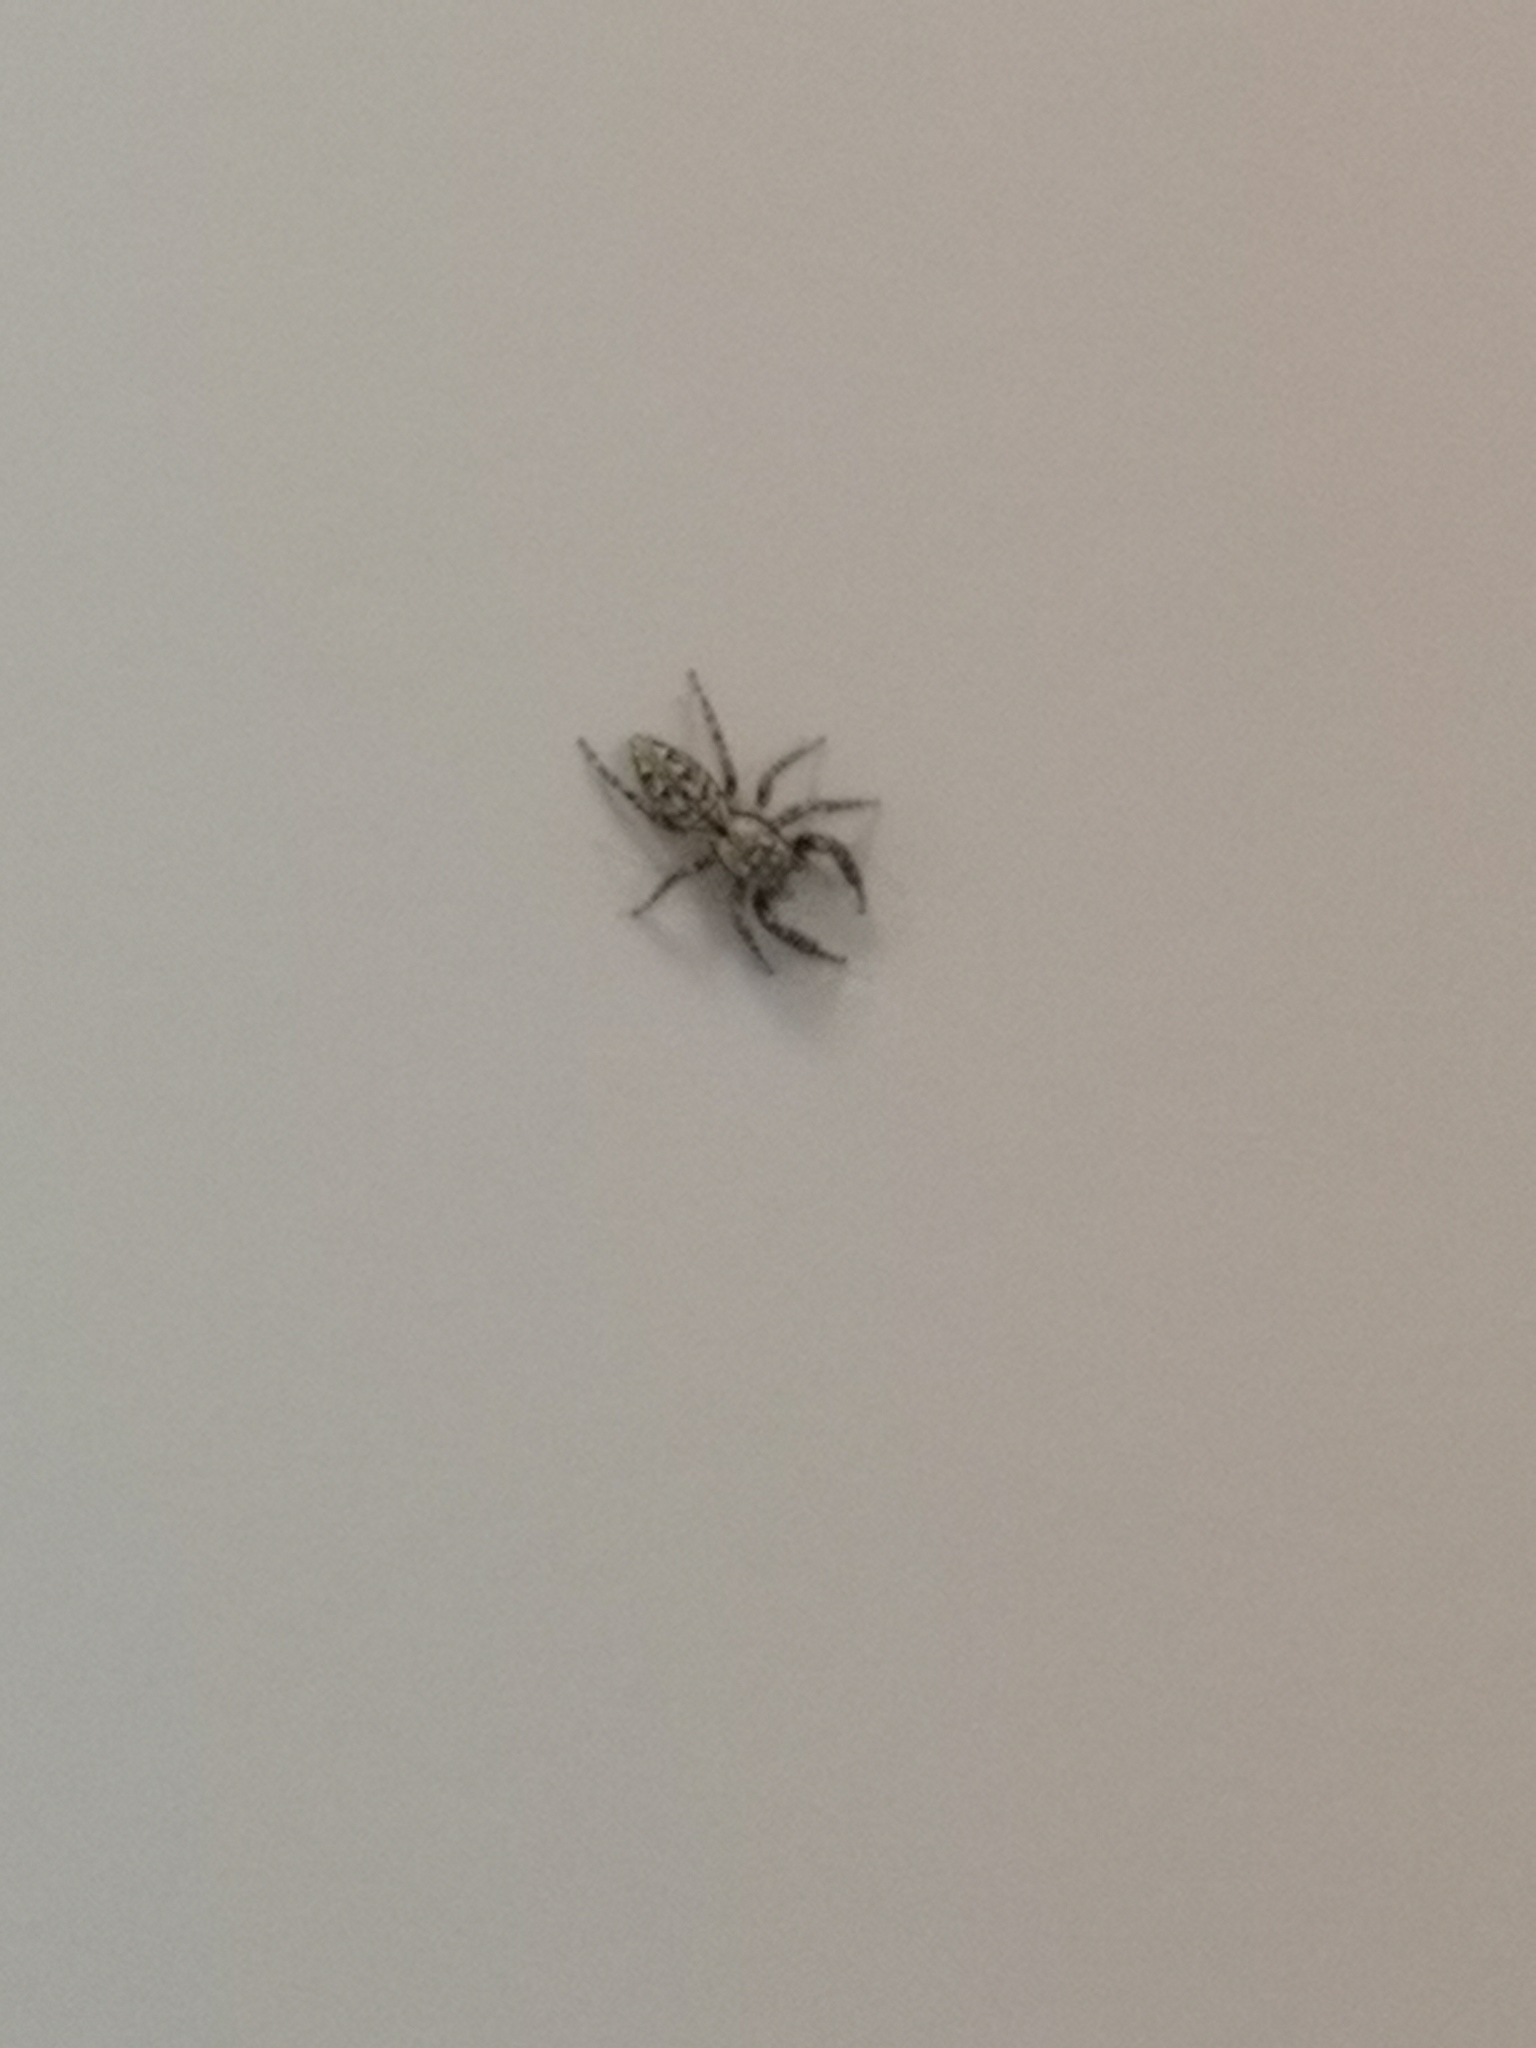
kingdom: Animalia
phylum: Arthropoda
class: Arachnida
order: Araneae
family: Salticidae
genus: Marpissa
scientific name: Marpissa muscosa
